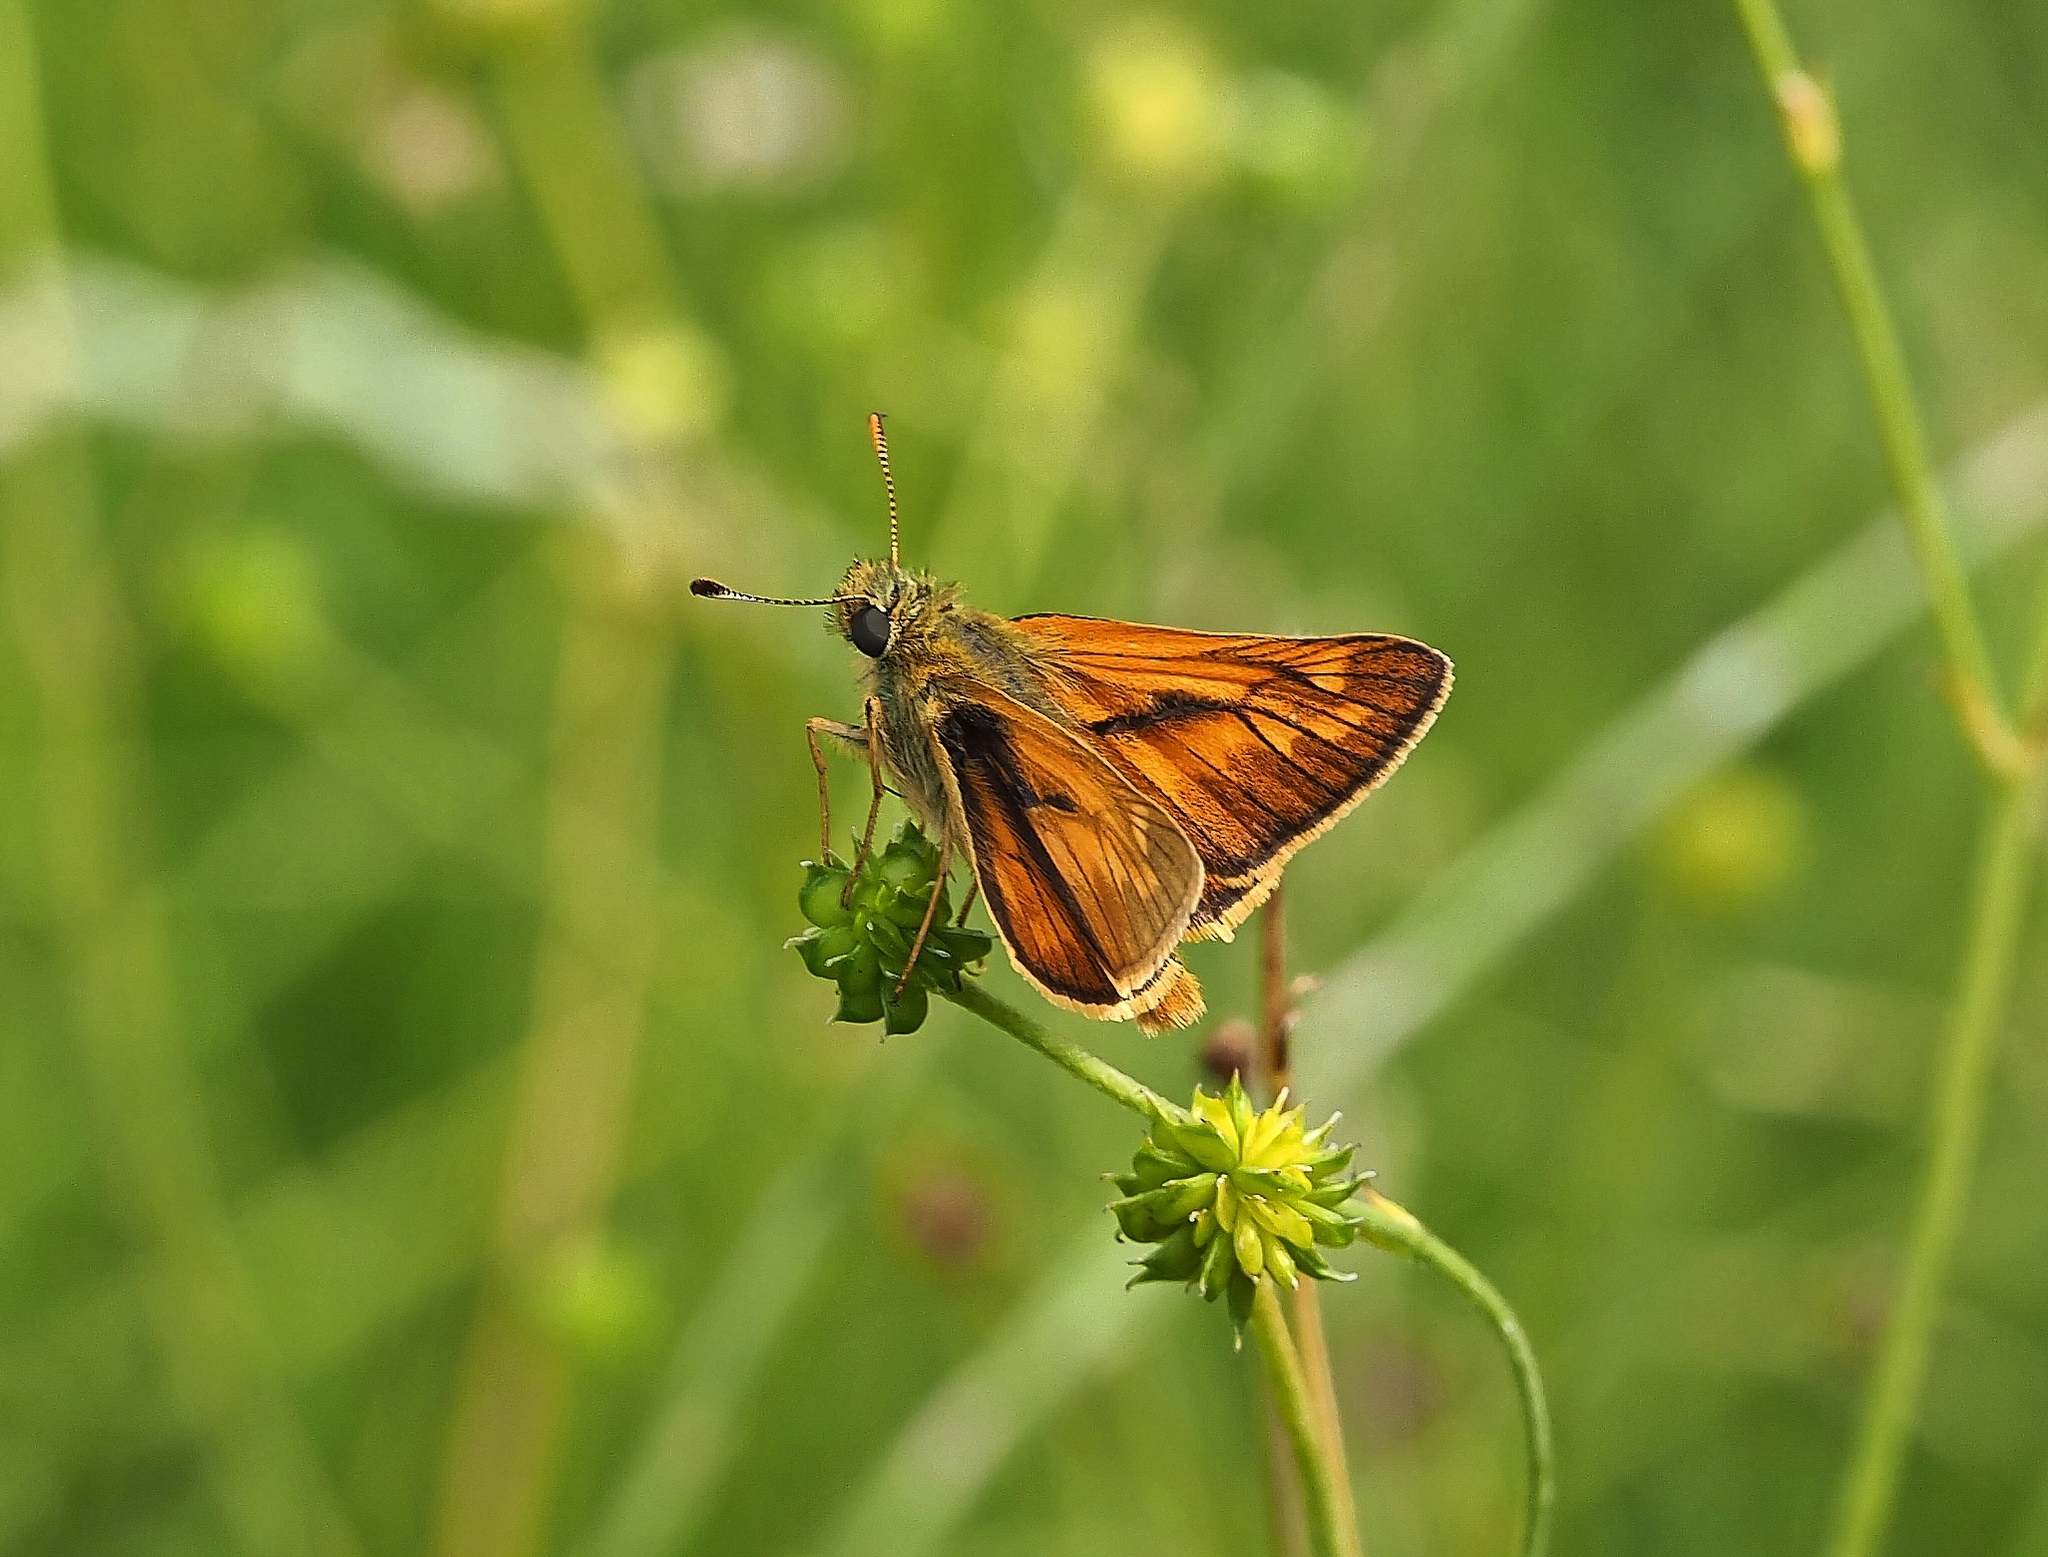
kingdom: Animalia
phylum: Arthropoda
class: Insecta
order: Lepidoptera
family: Hesperiidae
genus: Ochlodes
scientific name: Ochlodes venata
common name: Large skipper
